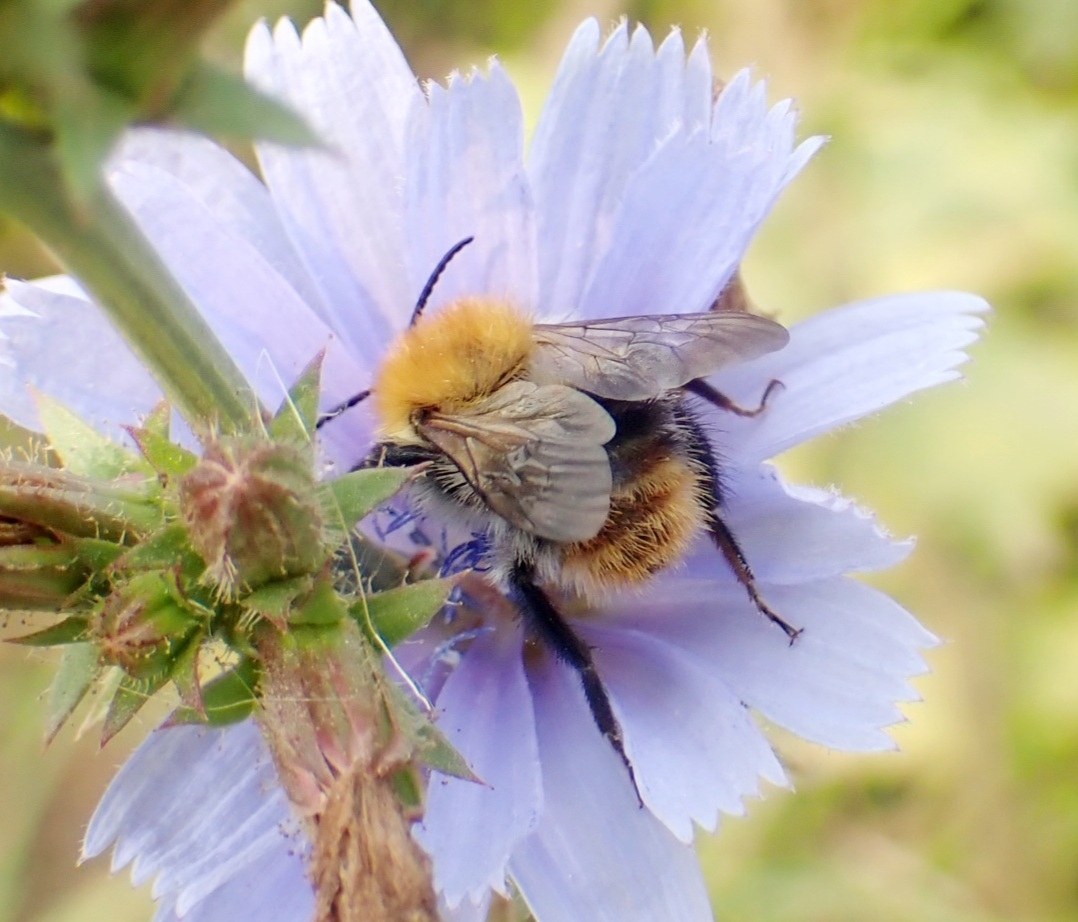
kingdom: Animalia
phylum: Arthropoda
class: Insecta
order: Hymenoptera
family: Apidae
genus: Bombus
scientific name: Bombus pascuorum
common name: Common carder bee
